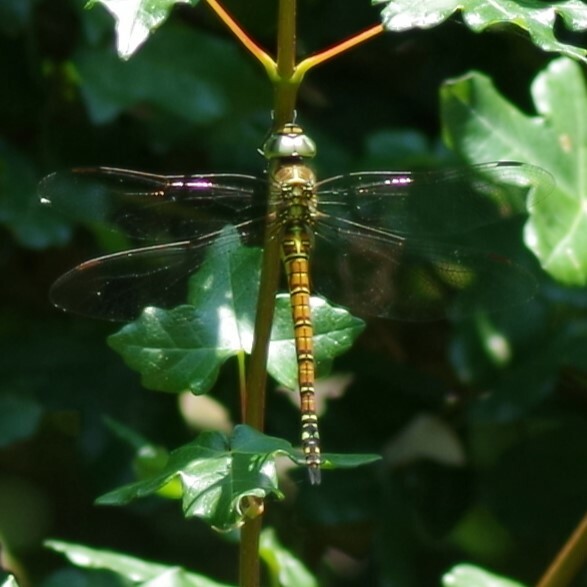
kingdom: Animalia
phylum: Arthropoda
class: Insecta
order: Odonata
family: Aeshnidae
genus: Aeshna
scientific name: Aeshna affinis
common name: Southern migrant hawker
